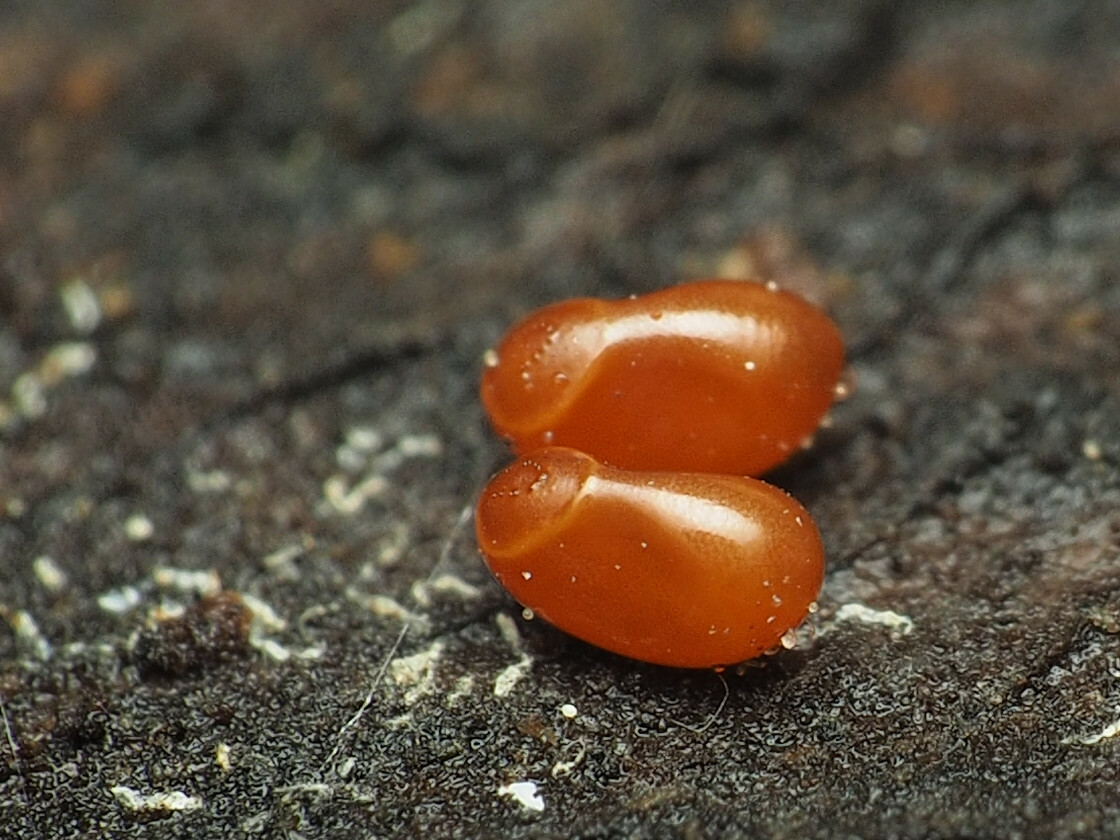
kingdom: Animalia
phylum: Arthropoda
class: Insecta
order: Hemiptera
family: Rhopalidae
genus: Boisea
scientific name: Boisea trivittata
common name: Boxelder bug
